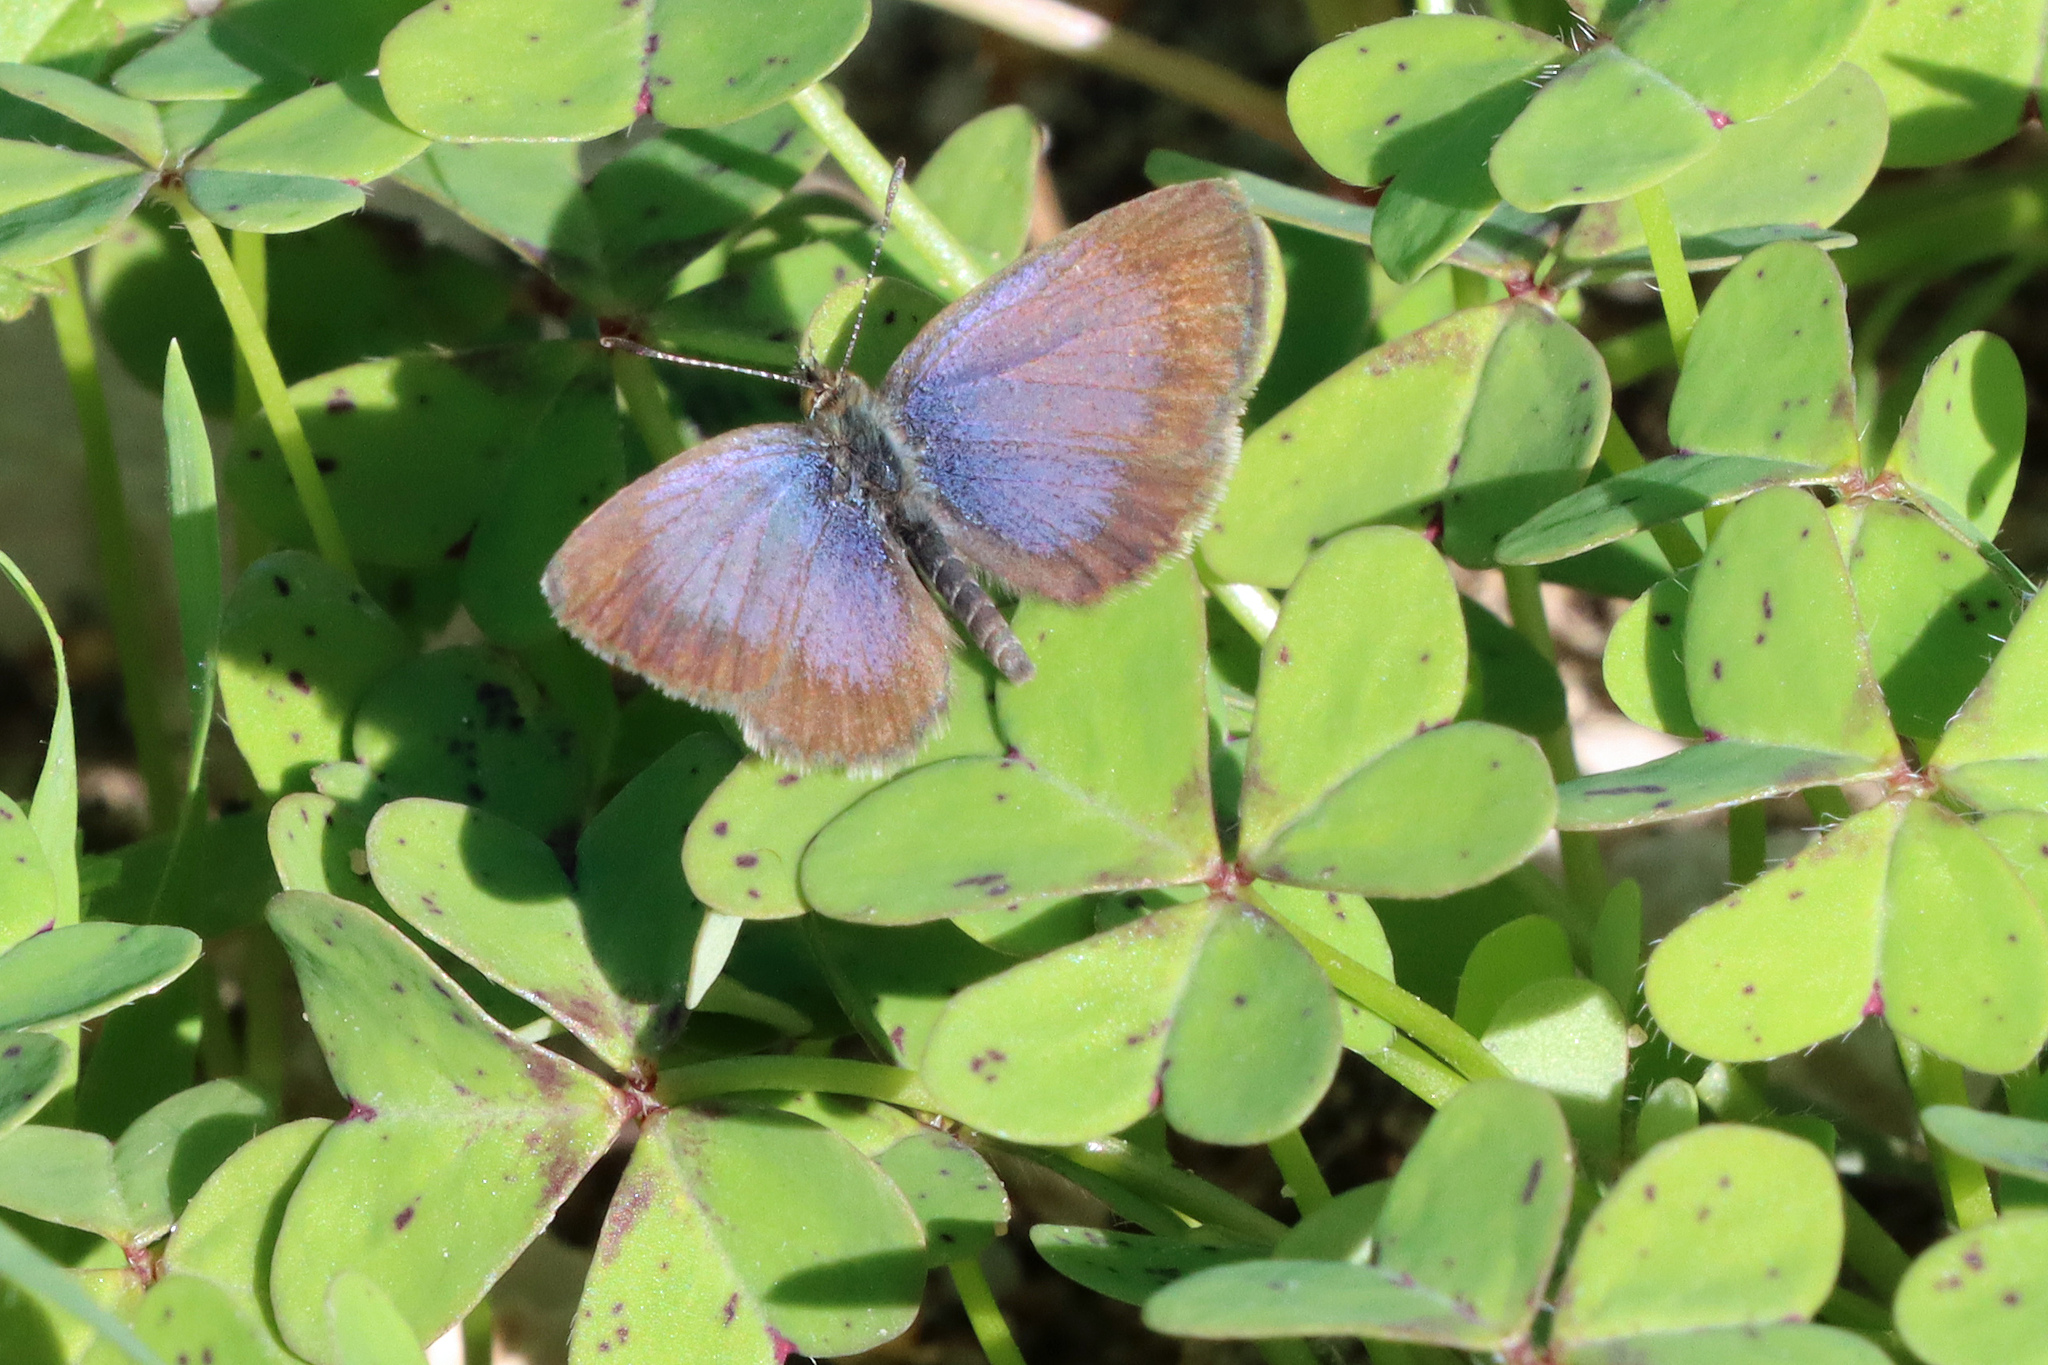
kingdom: Animalia
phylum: Arthropoda
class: Insecta
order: Lepidoptera
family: Lycaenidae
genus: Zizeeria
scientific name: Zizeeria knysna
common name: African grass blue
